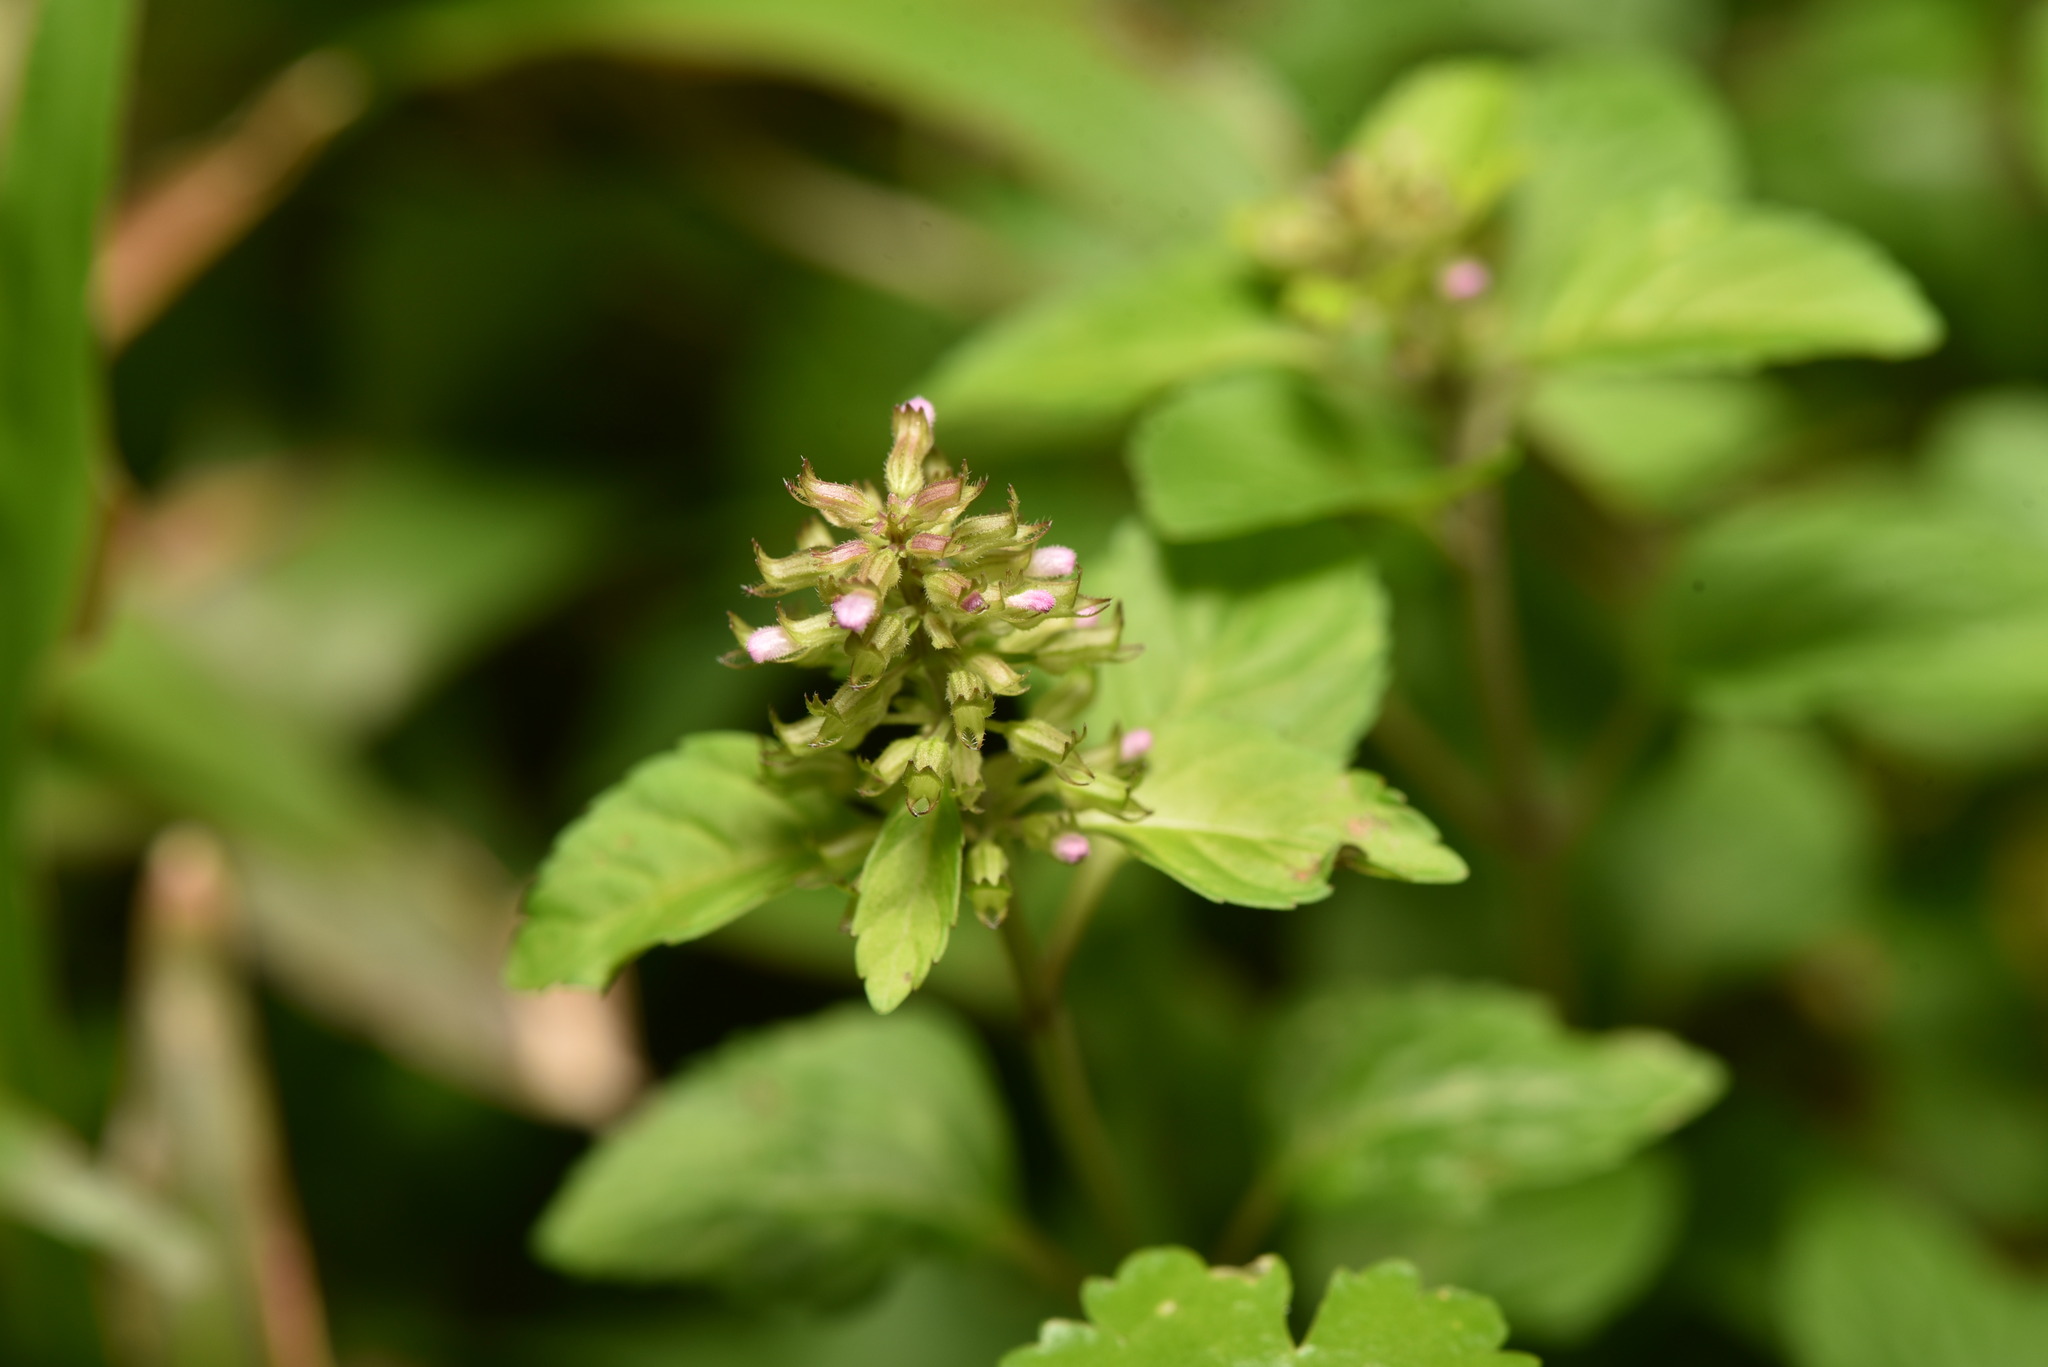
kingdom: Plantae
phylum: Tracheophyta
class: Magnoliopsida
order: Lamiales
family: Lamiaceae
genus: Clinopodium
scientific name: Clinopodium gracile
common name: Slender wild basil
